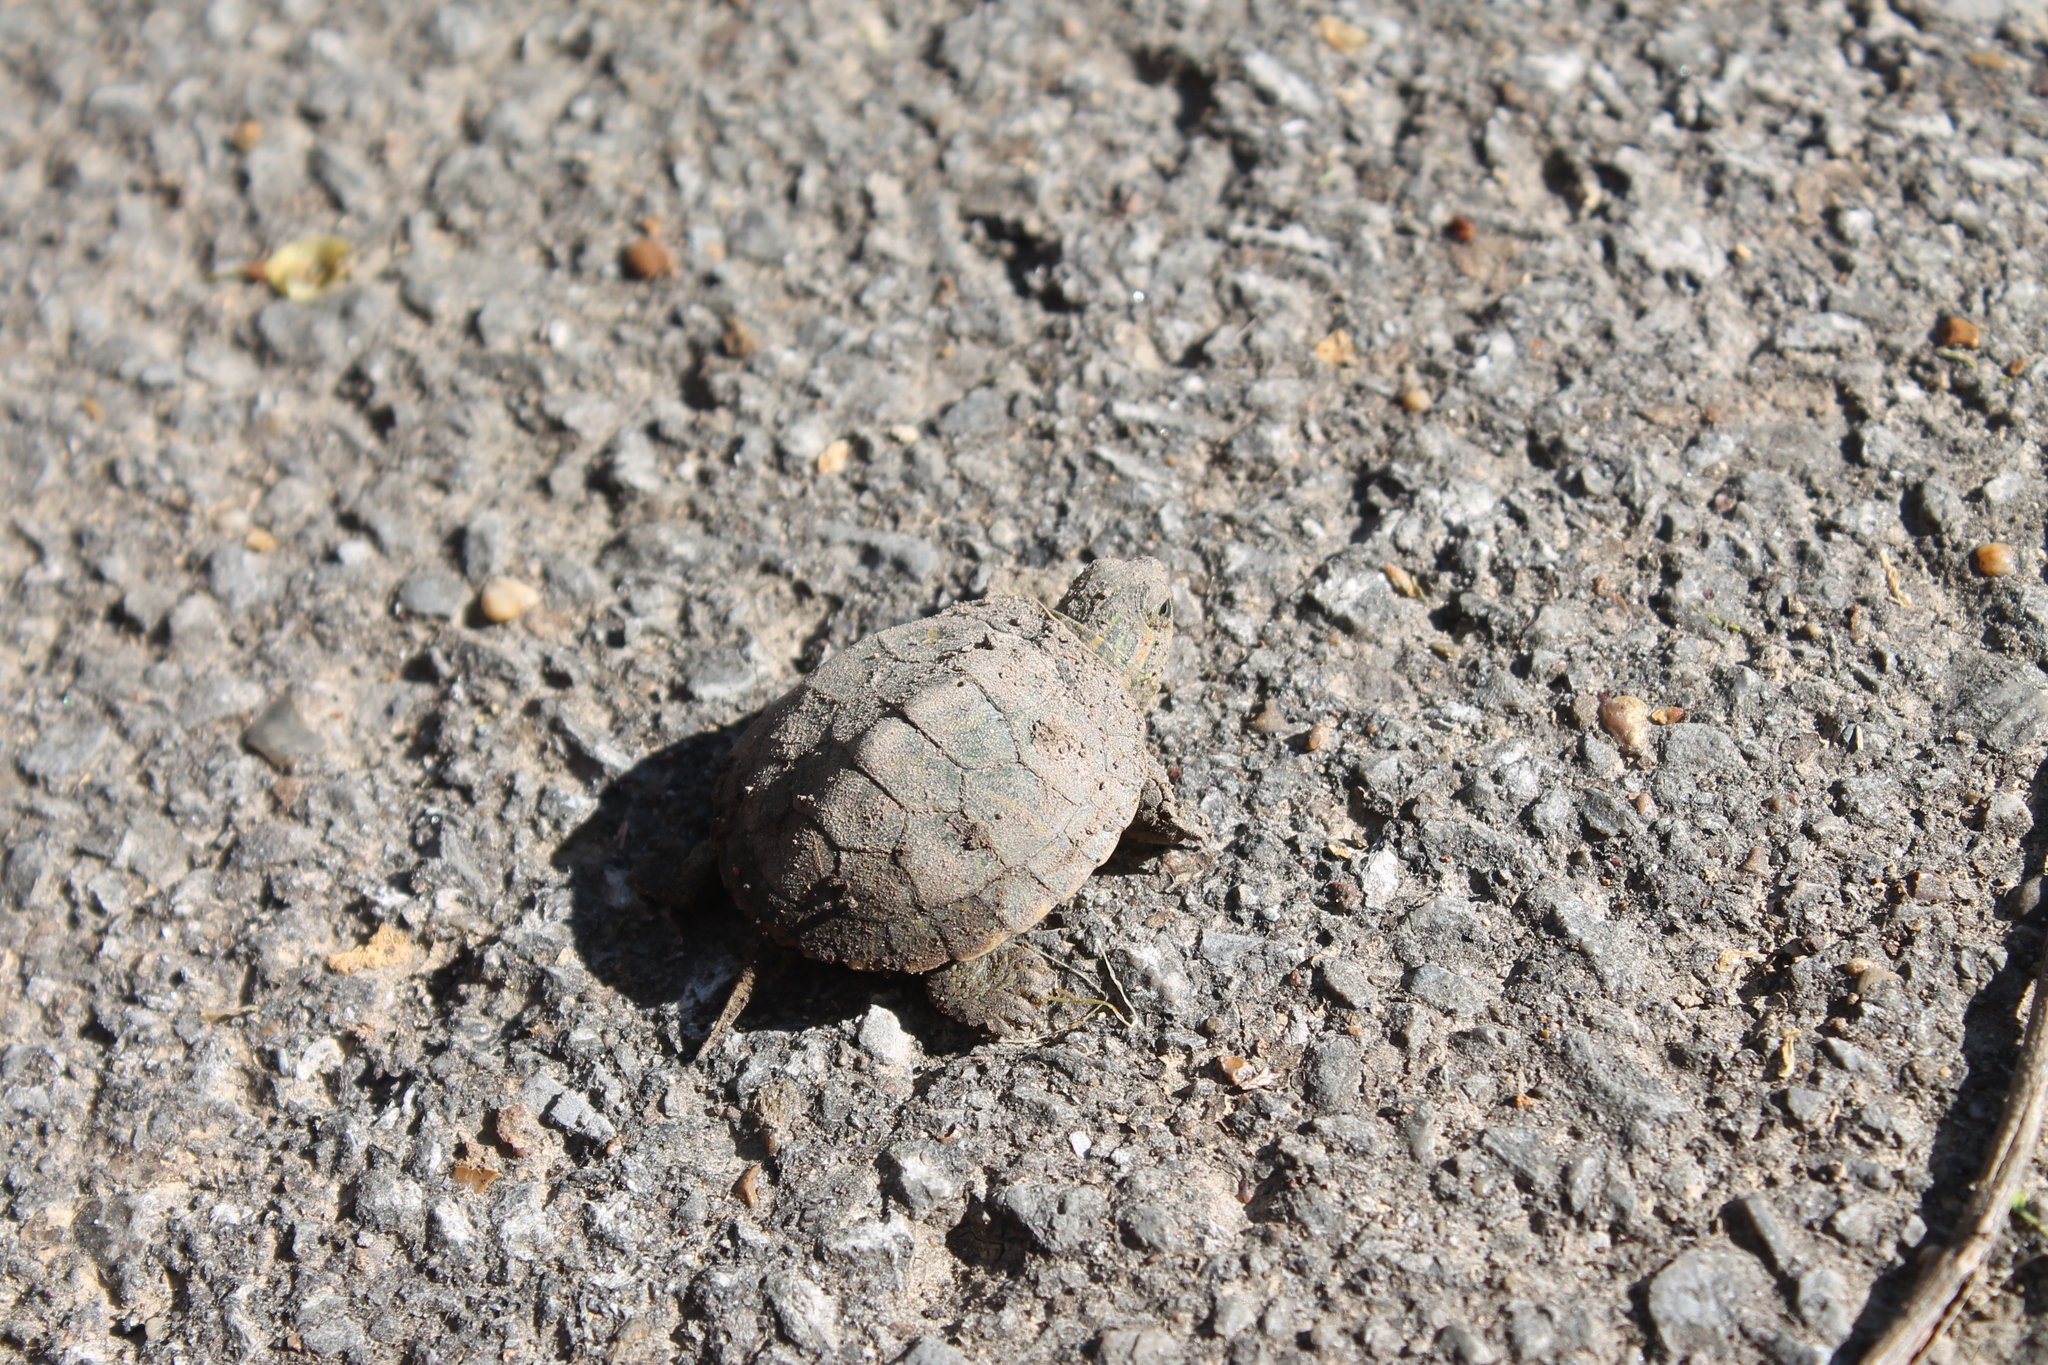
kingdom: Animalia
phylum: Chordata
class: Testudines
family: Emydidae
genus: Trachemys
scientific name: Trachemys scripta
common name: Slider
